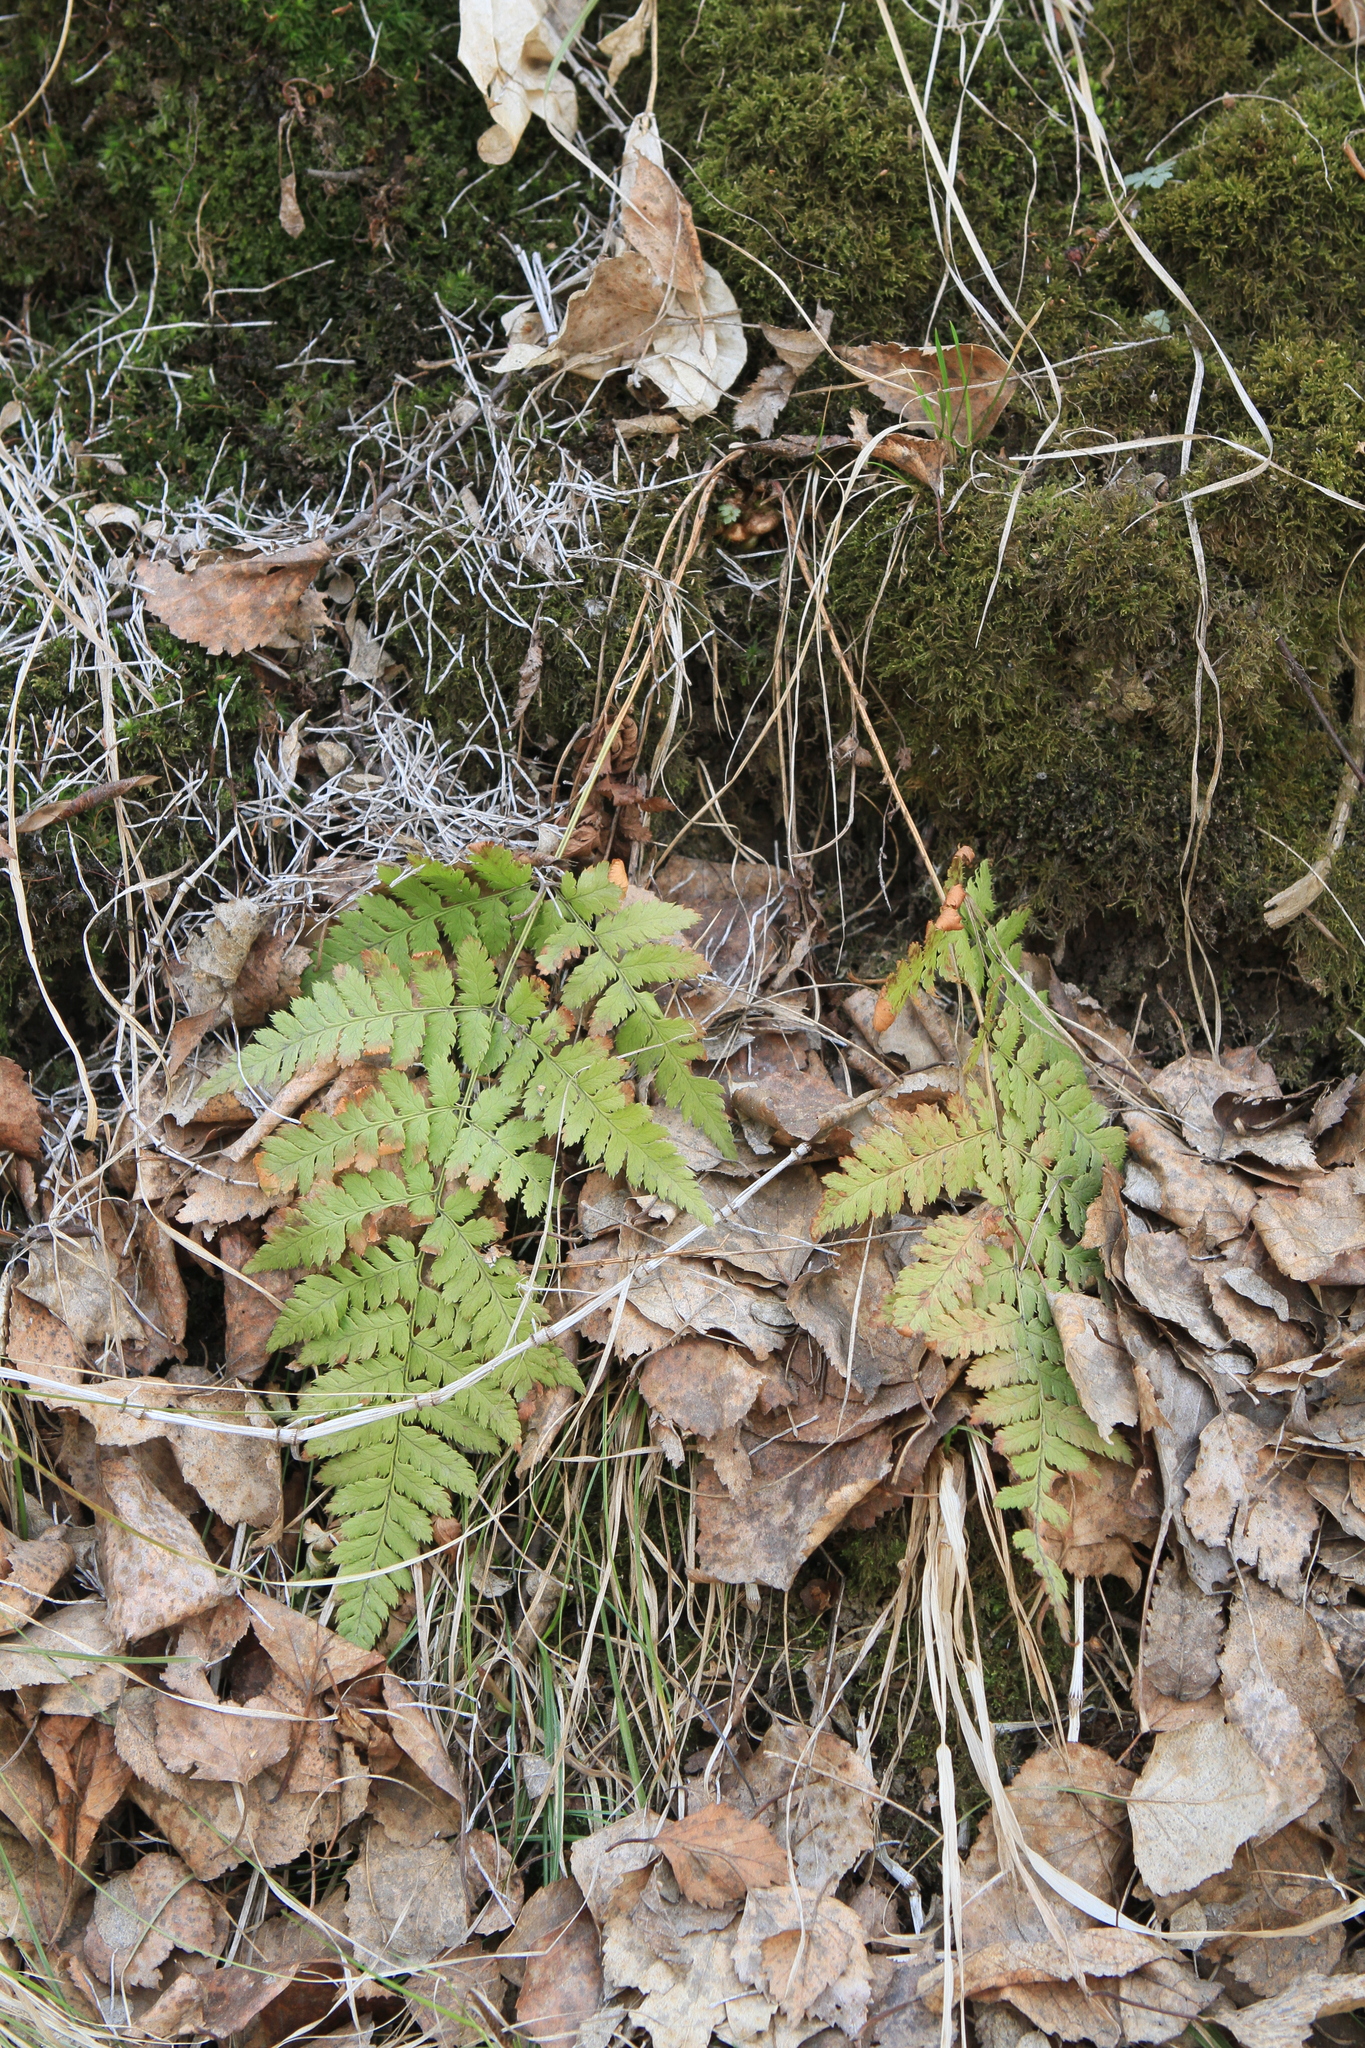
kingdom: Plantae
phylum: Tracheophyta
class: Polypodiopsida
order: Polypodiales
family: Dryopteridaceae
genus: Dryopteris
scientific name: Dryopteris carthusiana
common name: Narrow buckler-fern
